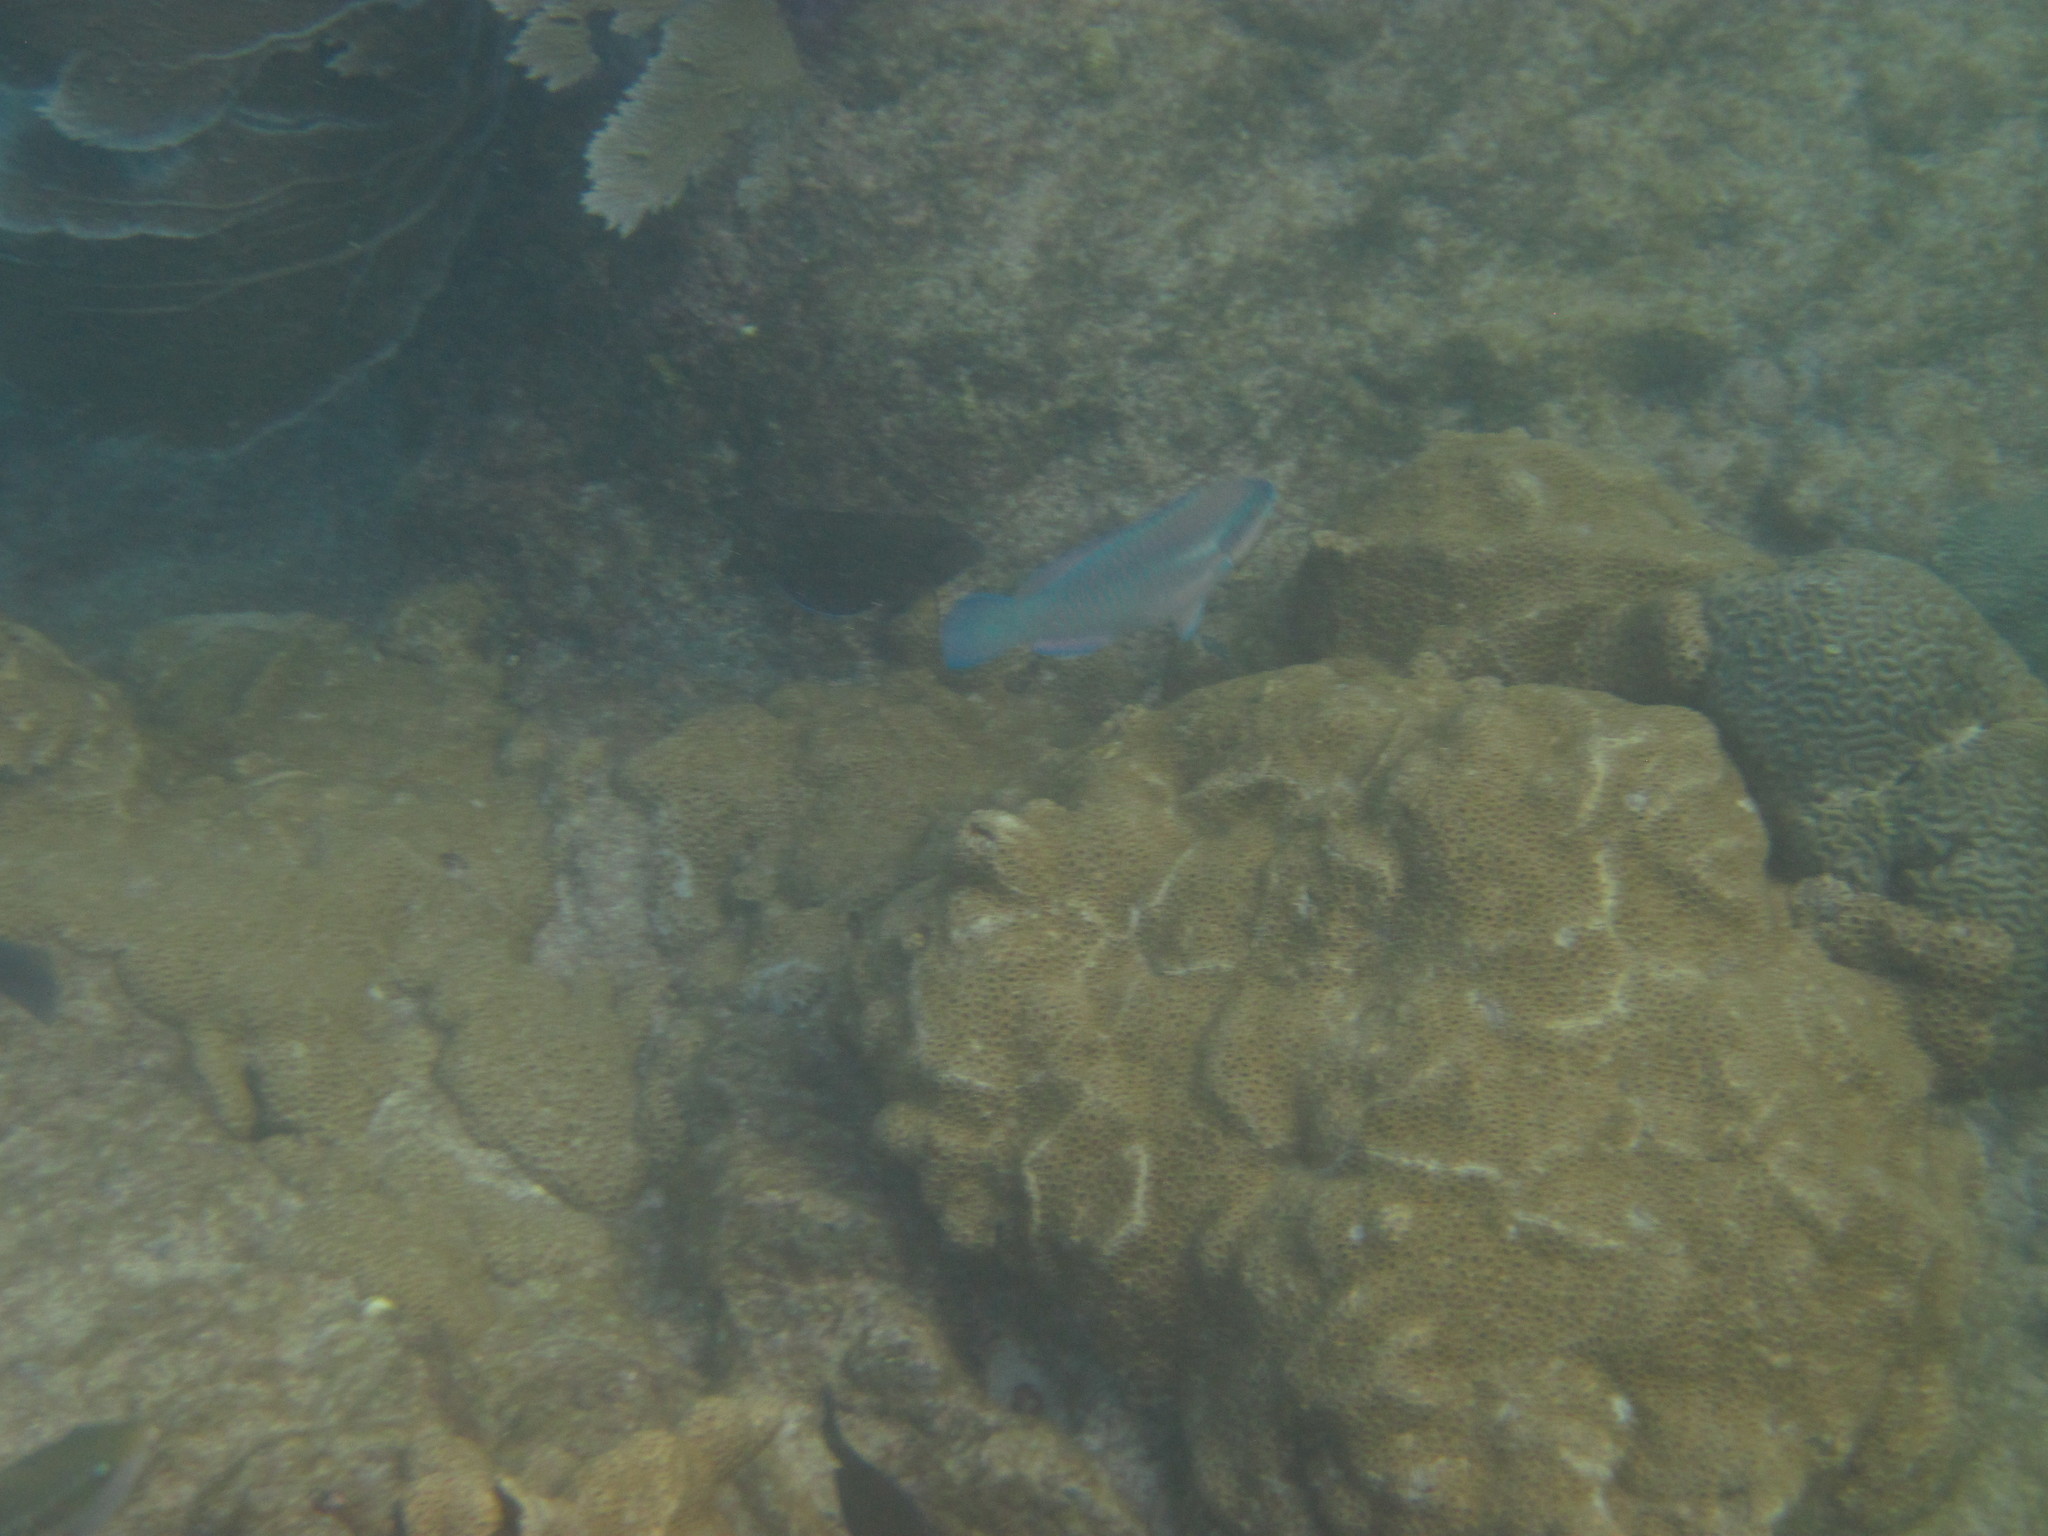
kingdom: Animalia
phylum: Chordata
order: Perciformes
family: Scaridae
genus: Scarus
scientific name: Scarus iseri
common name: Striped parrotfish
